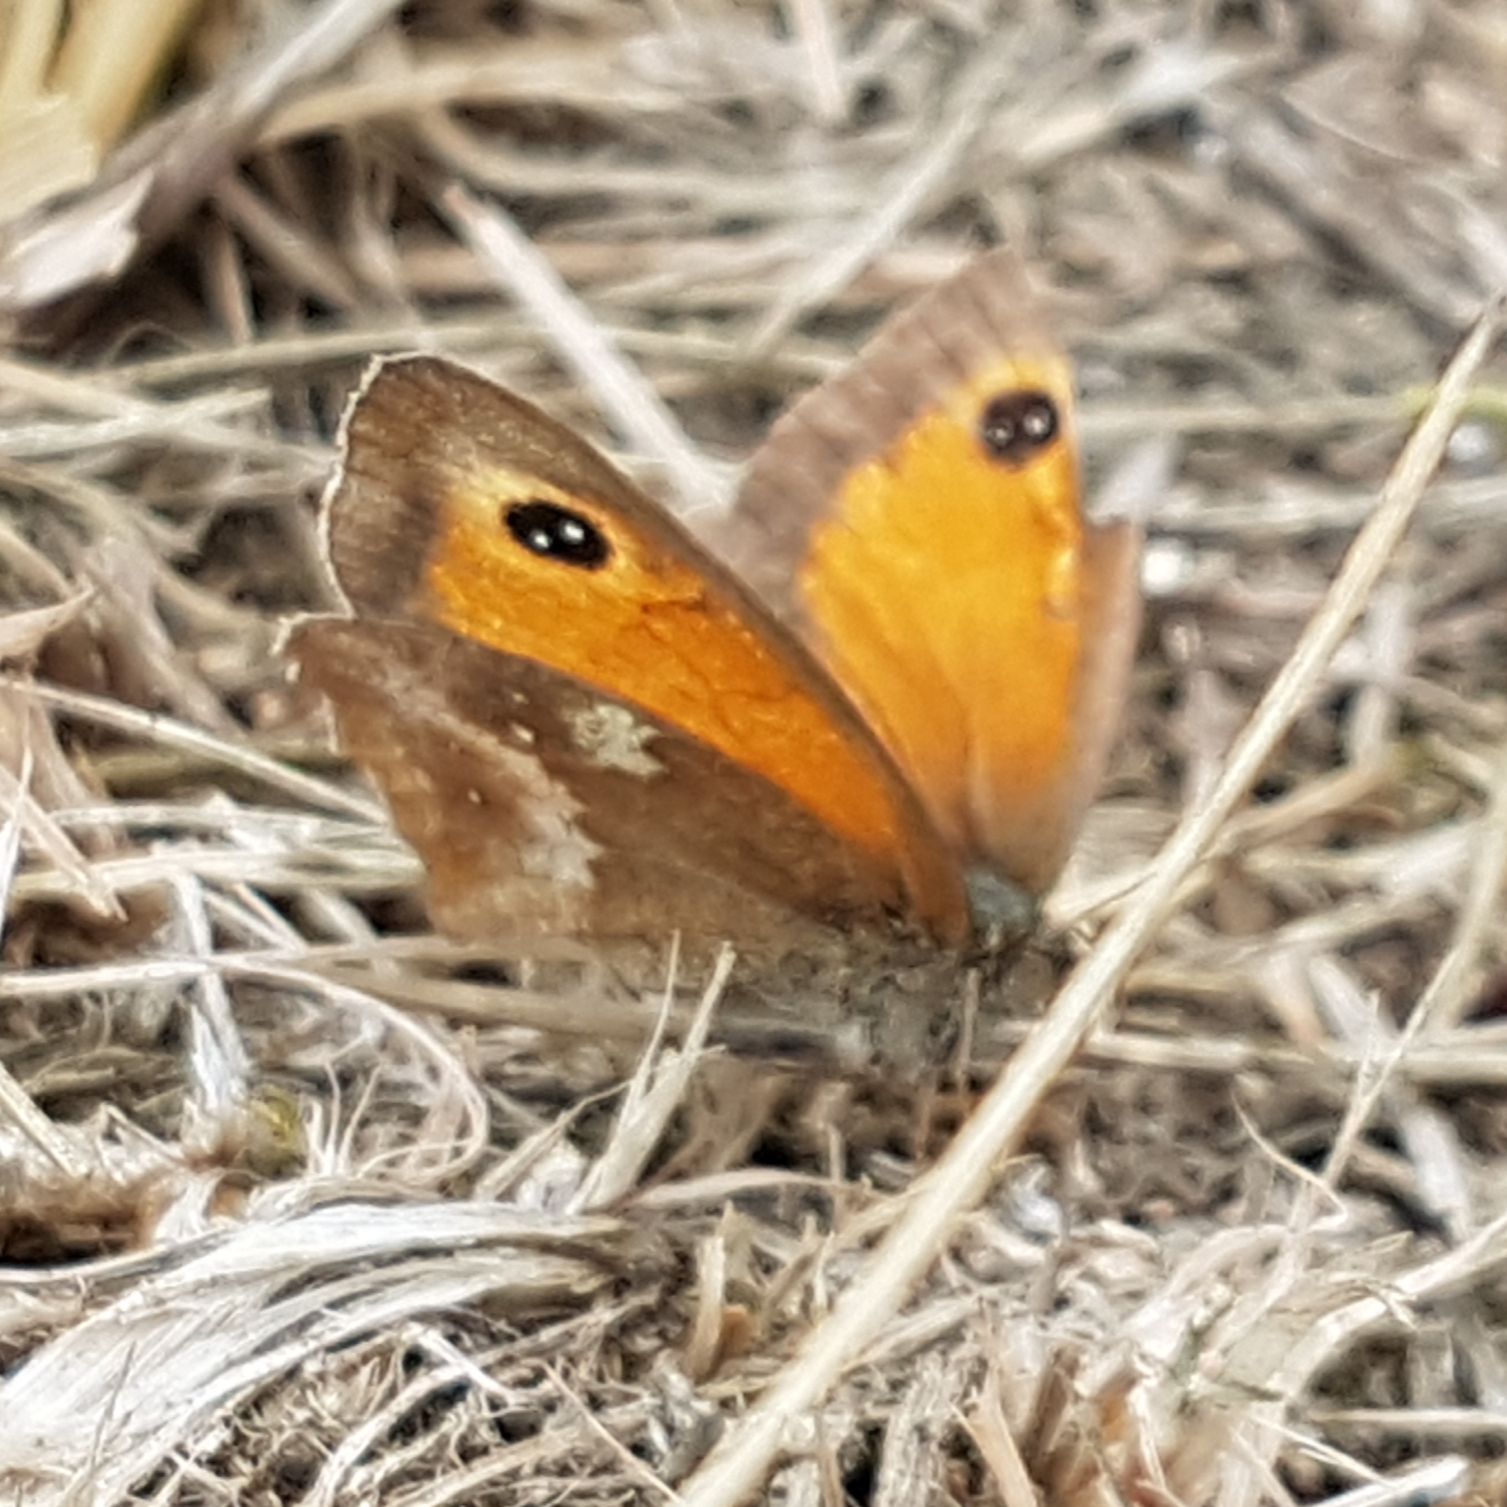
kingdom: Animalia
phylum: Arthropoda
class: Insecta
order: Lepidoptera
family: Nymphalidae
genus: Pyronia
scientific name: Pyronia tithonus
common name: Gatekeeper
